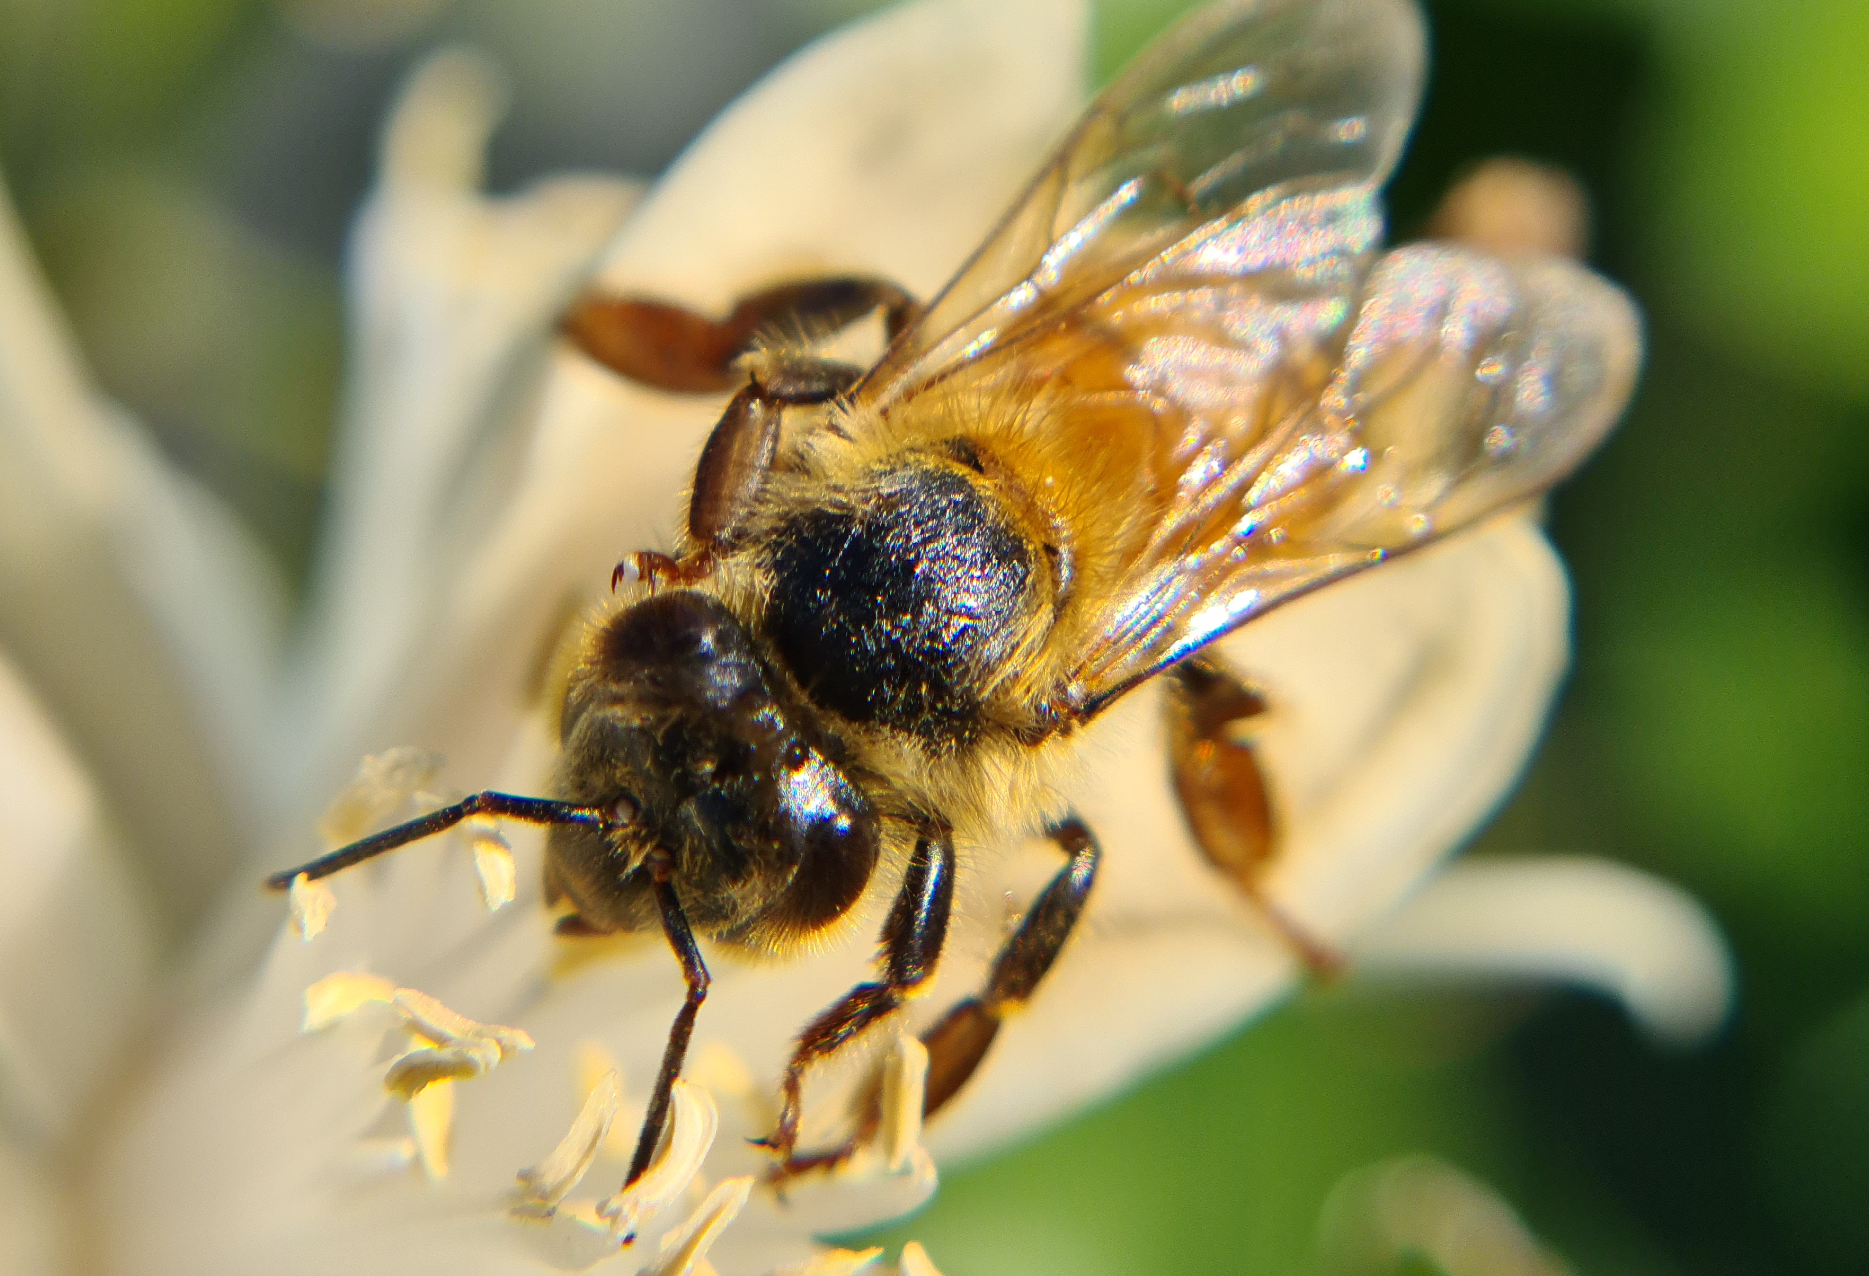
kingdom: Animalia
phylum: Arthropoda
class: Insecta
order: Hymenoptera
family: Apidae
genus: Apis
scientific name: Apis mellifera
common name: Honey bee
